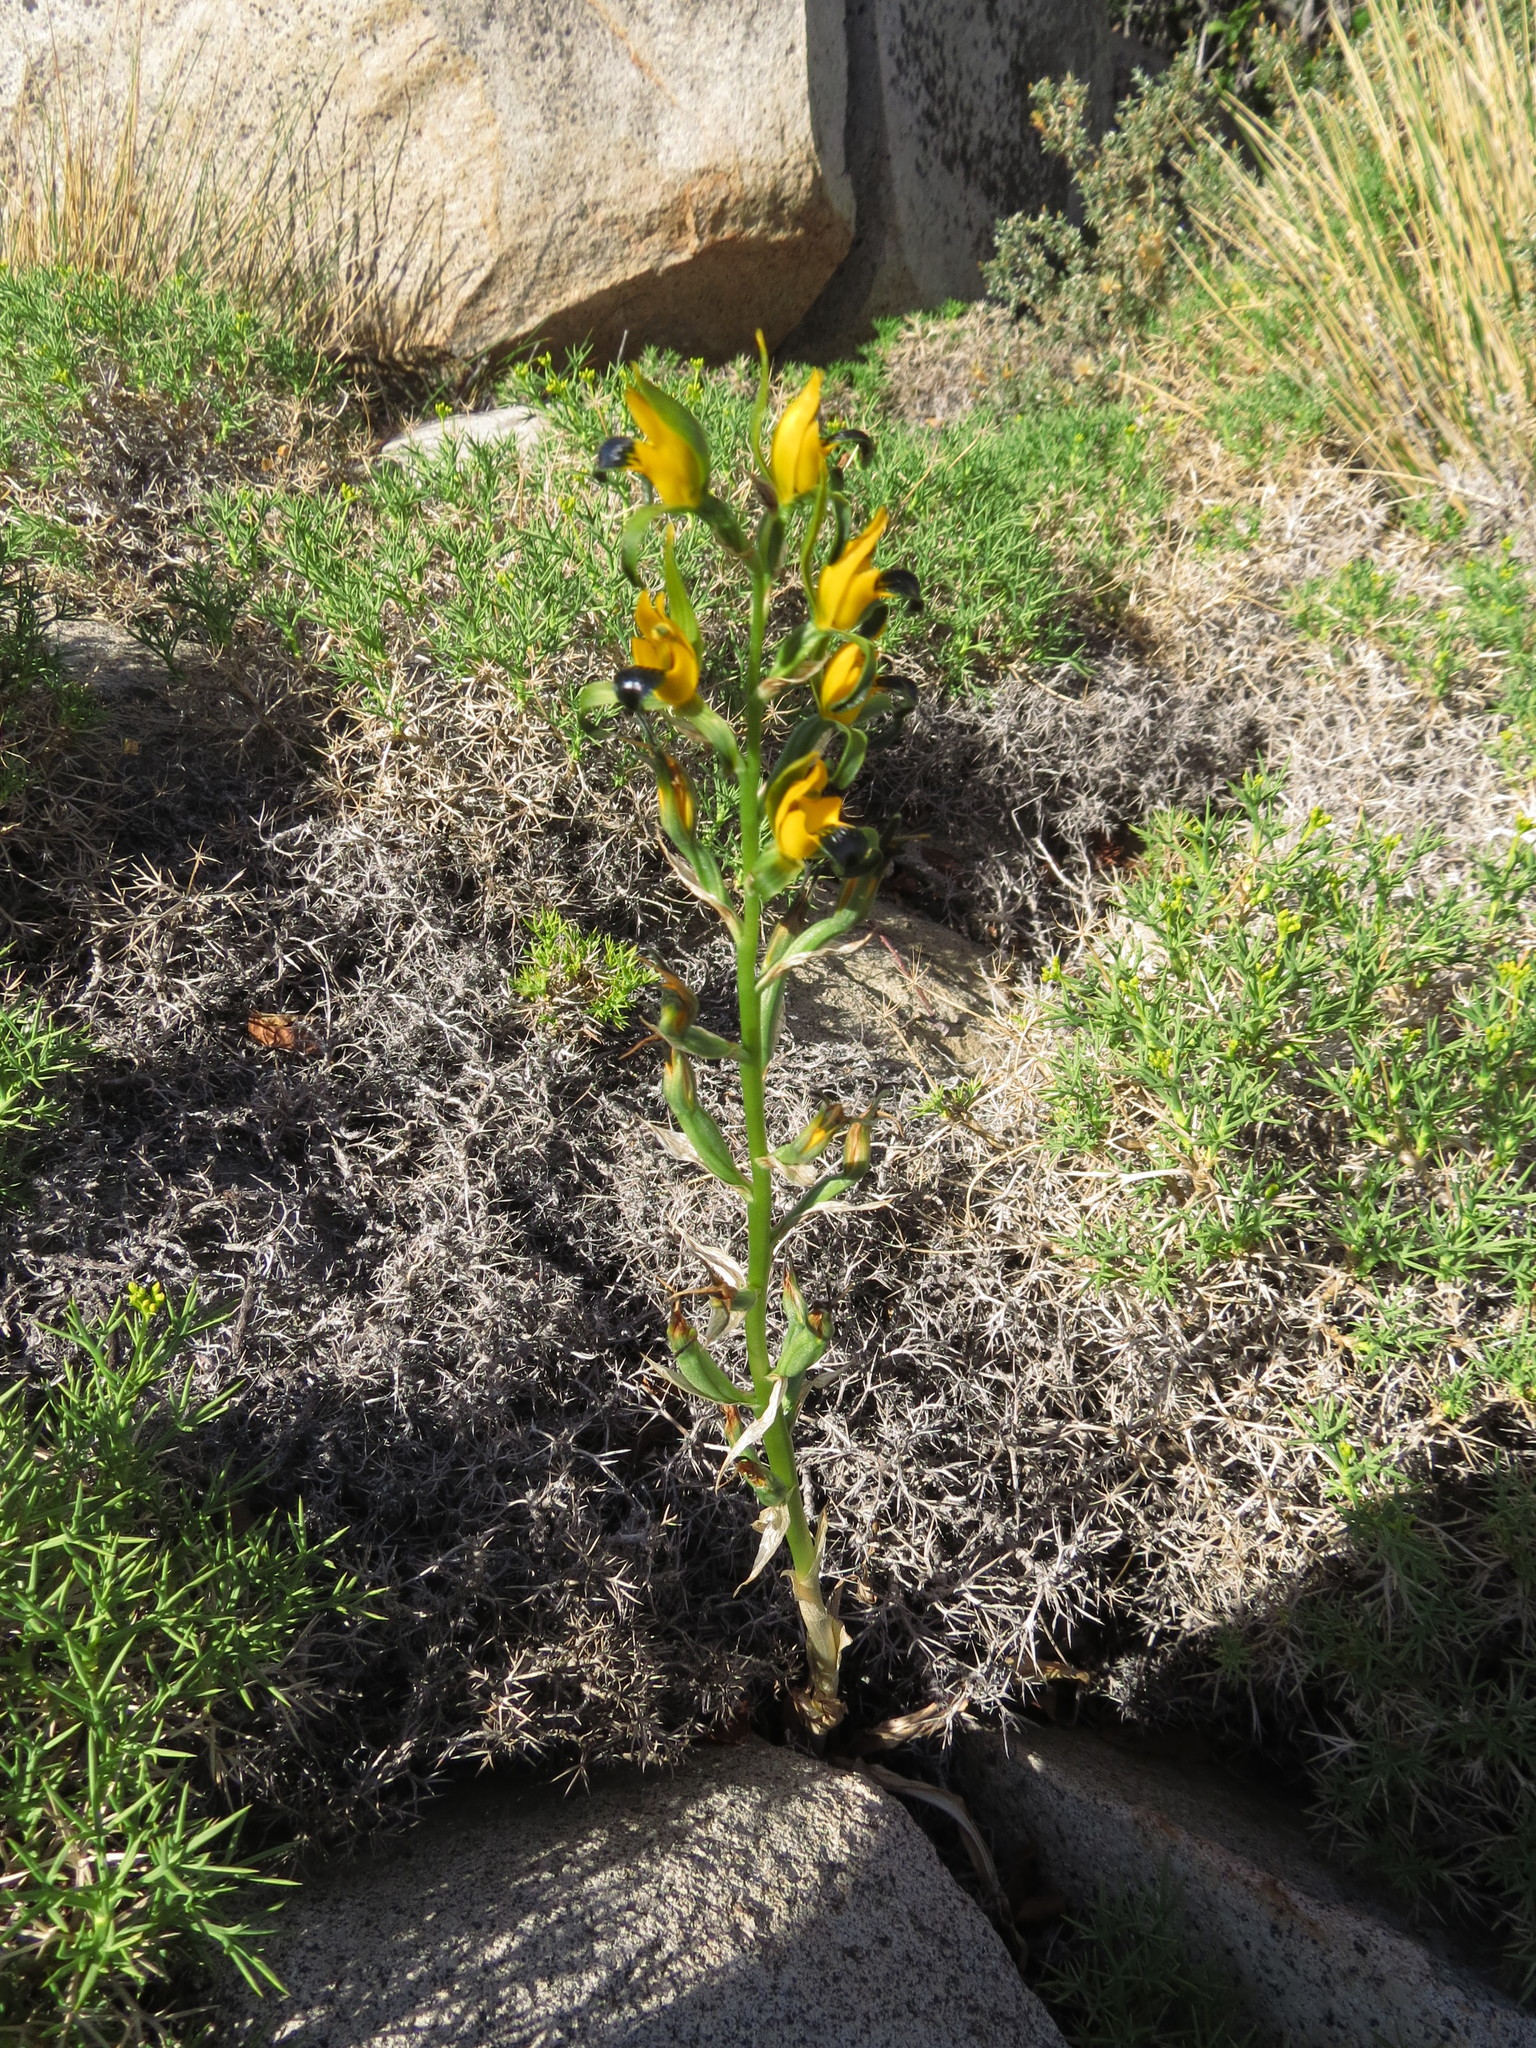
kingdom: Plantae
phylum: Tracheophyta
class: Liliopsida
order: Asparagales
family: Orchidaceae
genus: Chloraea
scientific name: Chloraea disoides
